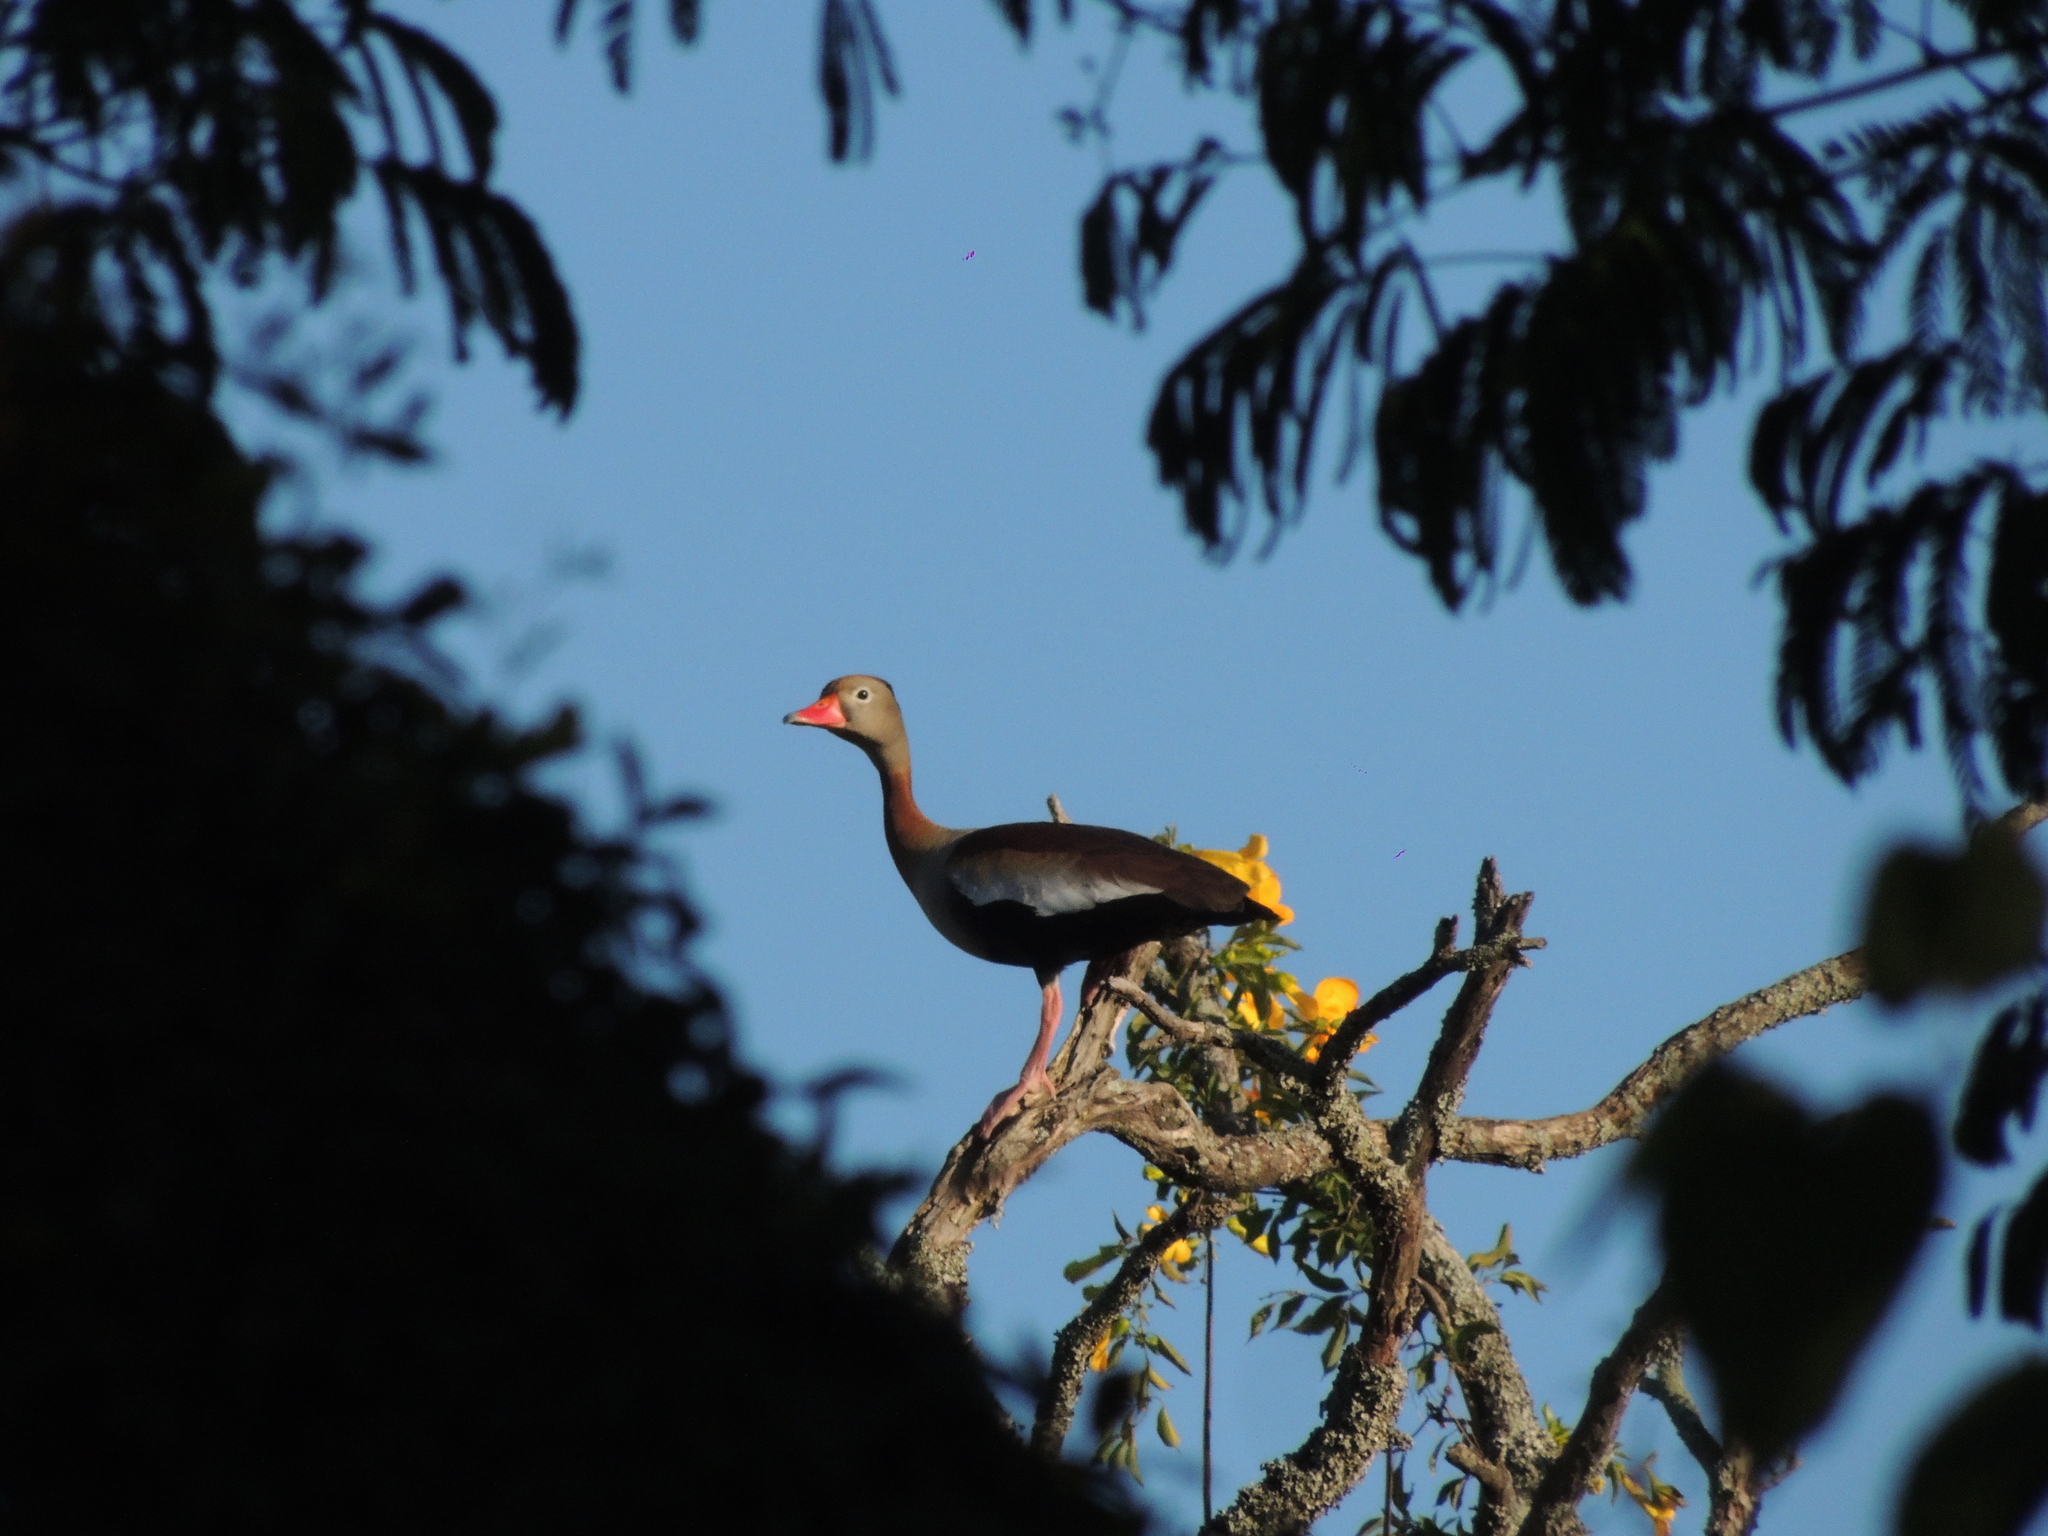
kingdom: Animalia
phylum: Chordata
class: Aves
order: Anseriformes
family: Anatidae
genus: Dendrocygna
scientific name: Dendrocygna autumnalis
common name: Black-bellied whistling duck
